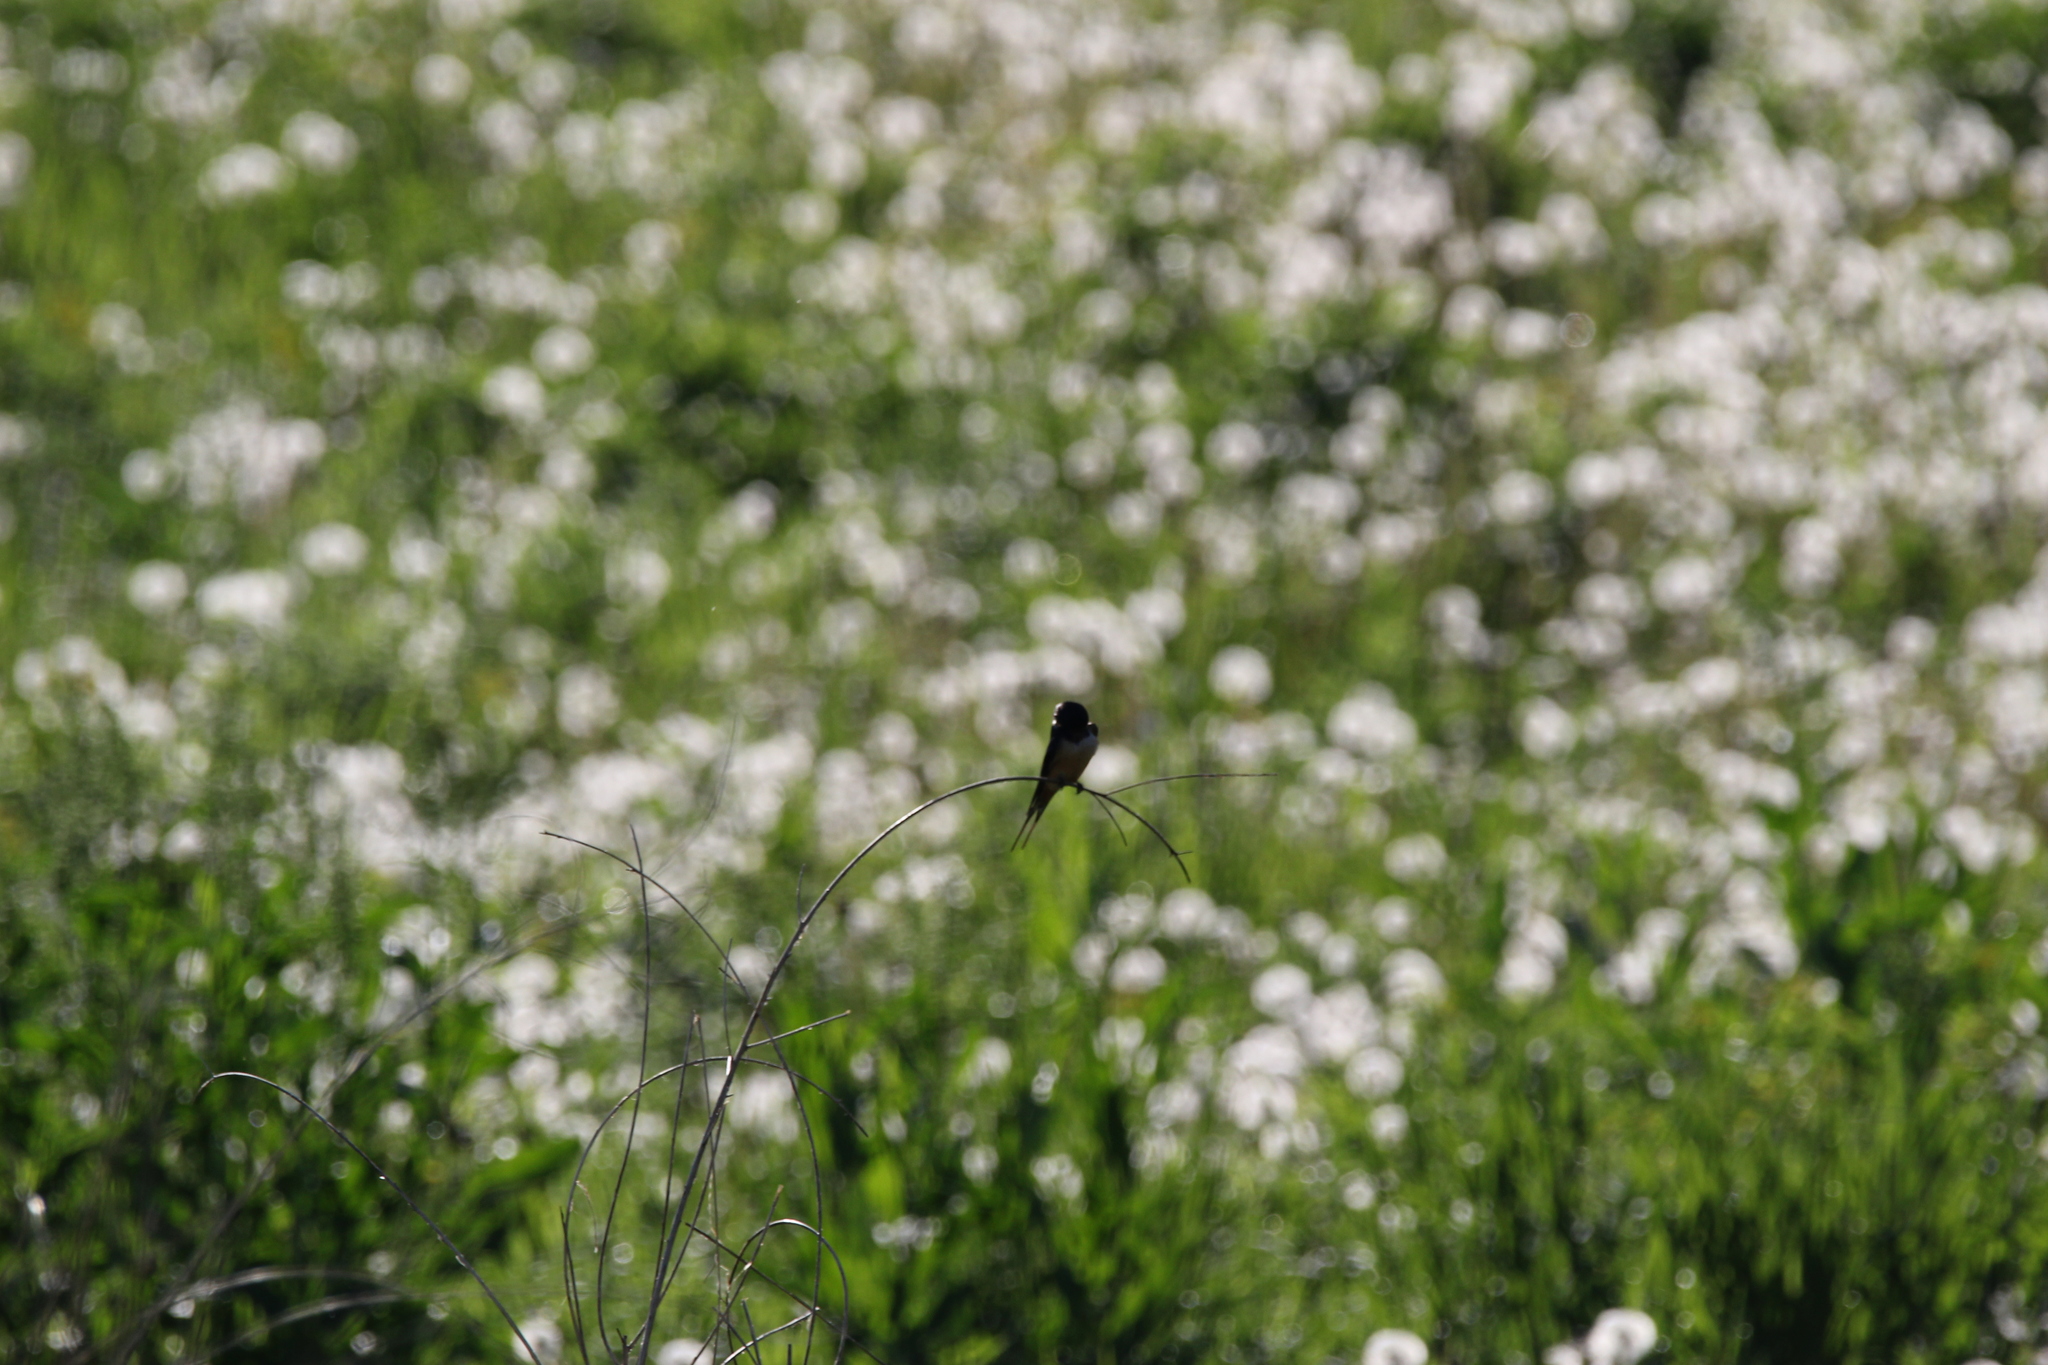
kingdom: Animalia
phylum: Chordata
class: Aves
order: Passeriformes
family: Hirundinidae
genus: Hirundo
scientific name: Hirundo rustica
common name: Barn swallow
